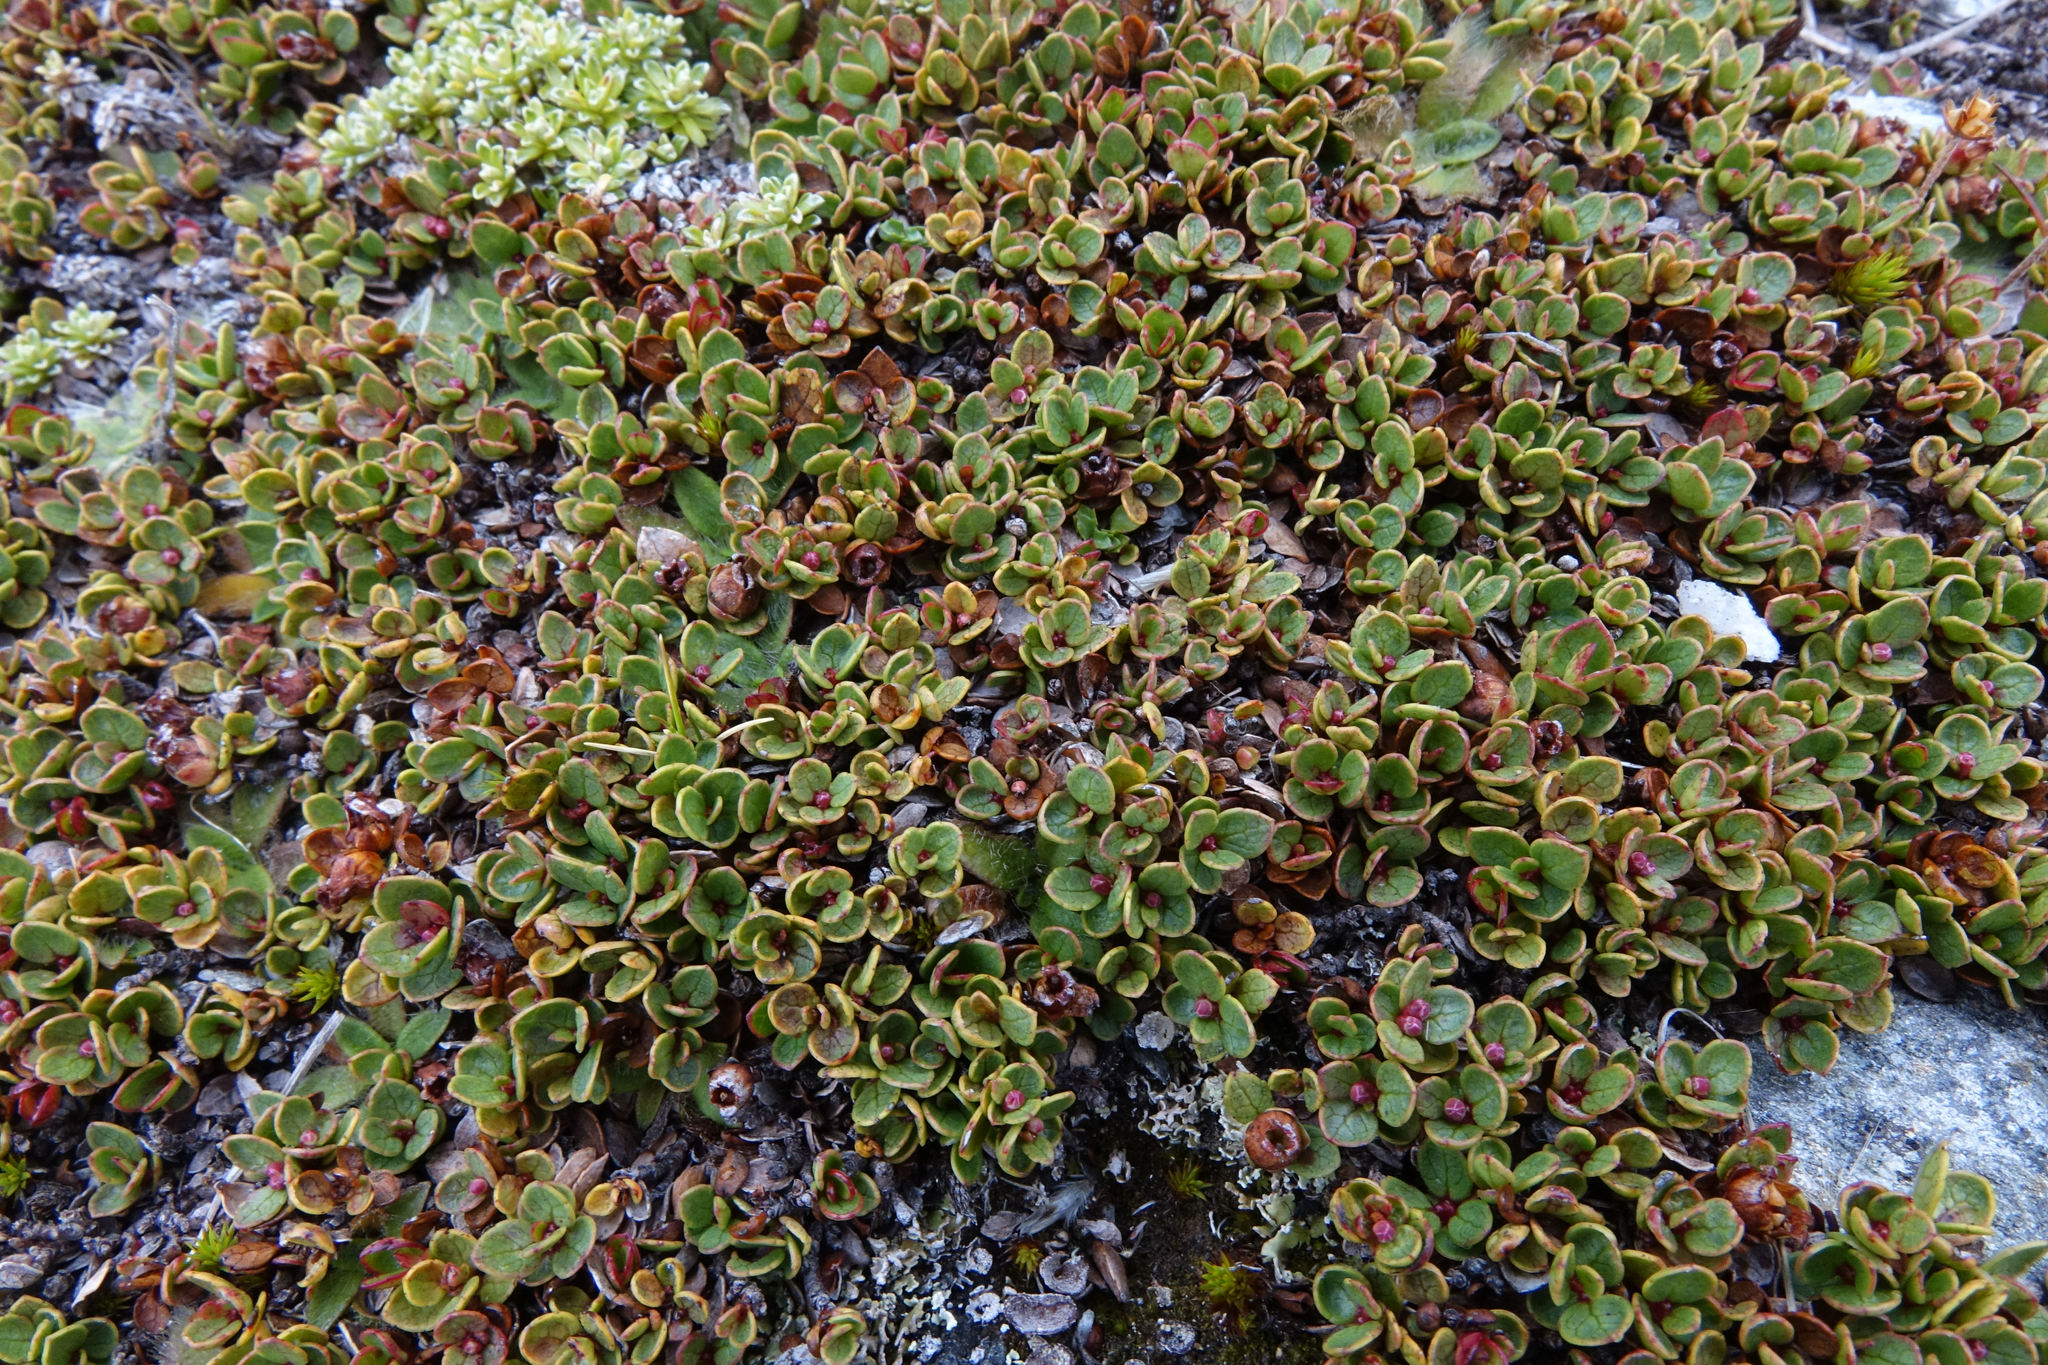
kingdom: Plantae
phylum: Tracheophyta
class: Magnoliopsida
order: Ericales
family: Ericaceae
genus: Gaultheria
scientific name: Gaultheria nubicola
